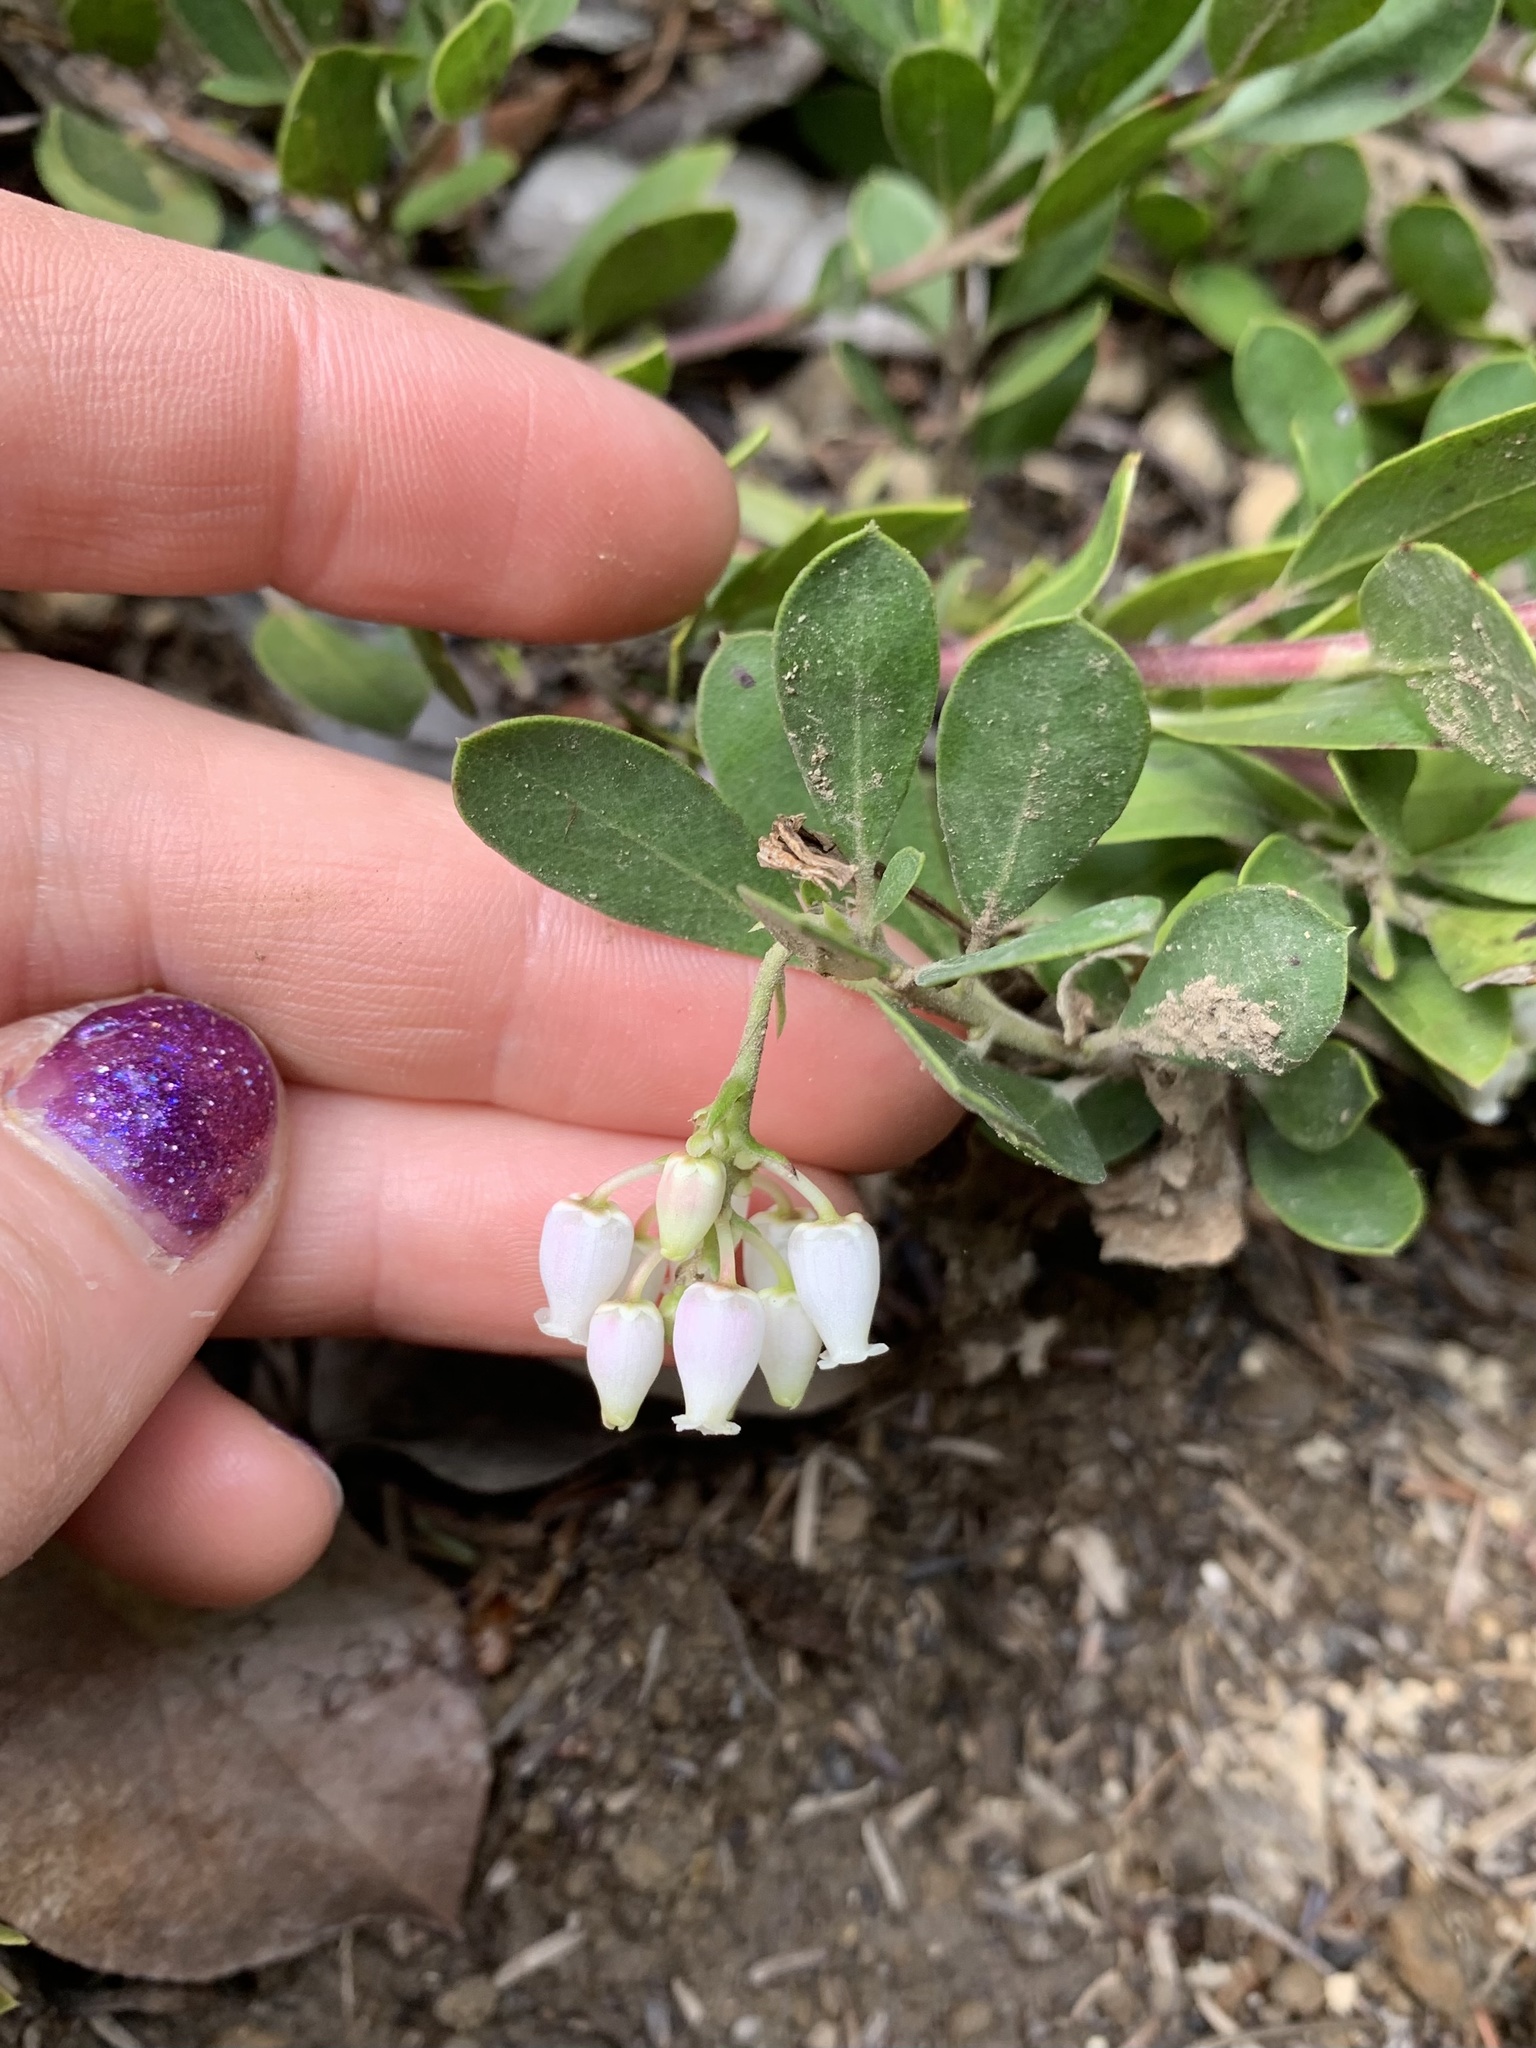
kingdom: Plantae
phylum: Tracheophyta
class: Magnoliopsida
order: Ericales
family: Ericaceae
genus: Arctostaphylos
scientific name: Arctostaphylos nevadensis
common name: Pinemat manzanita
